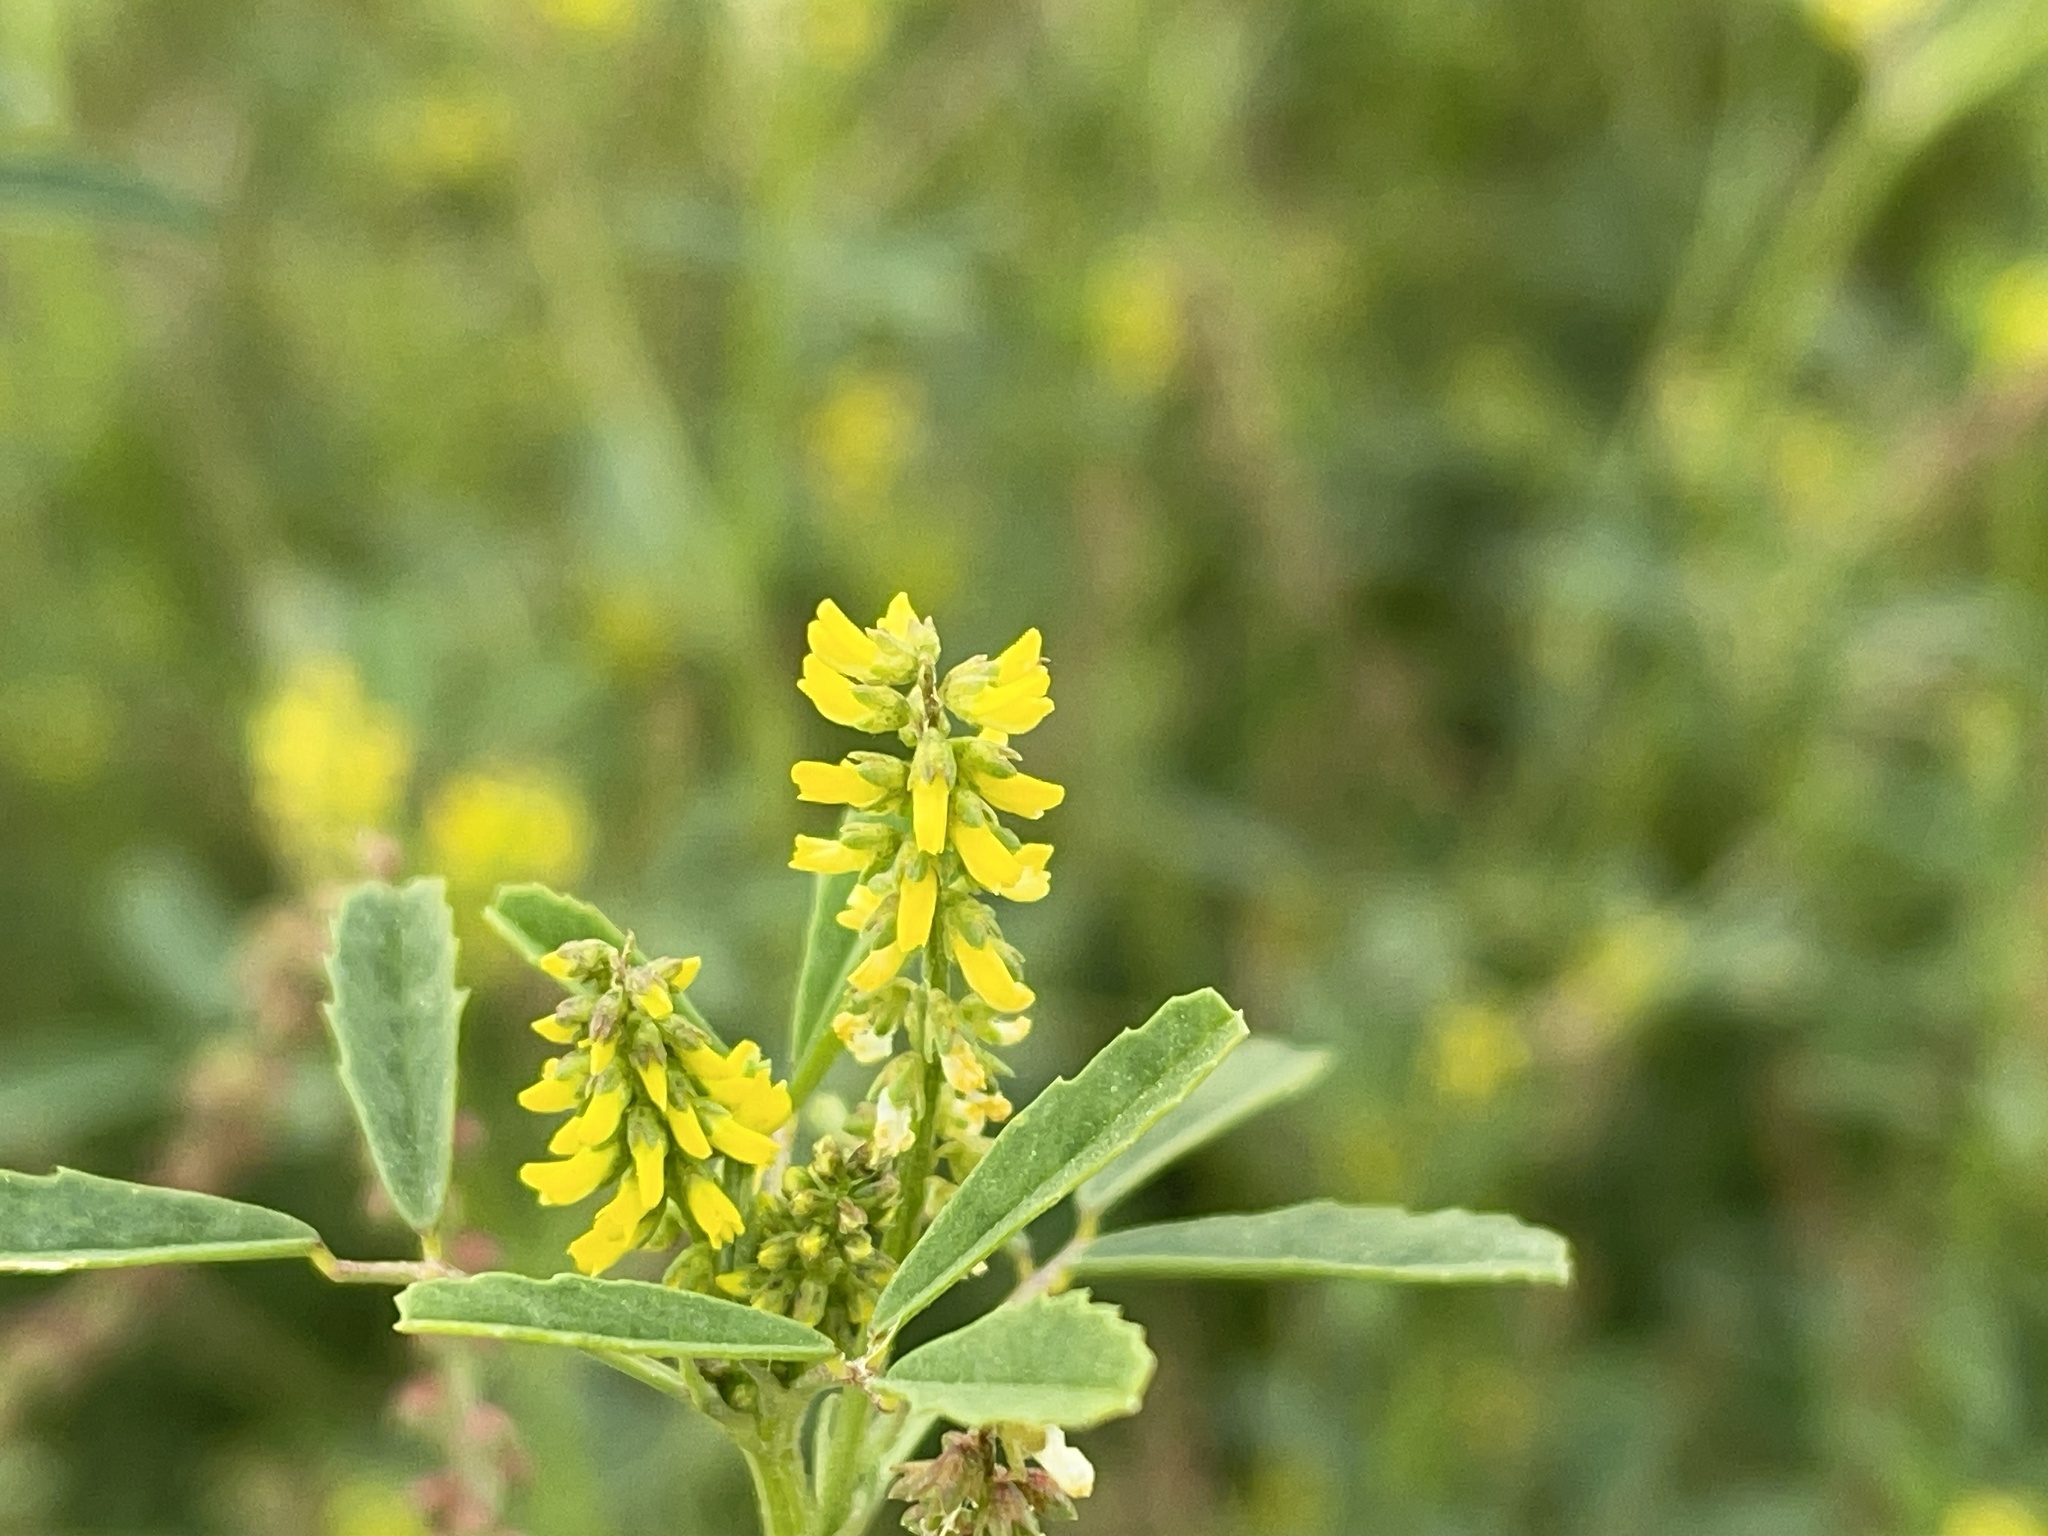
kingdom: Plantae
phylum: Tracheophyta
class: Magnoliopsida
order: Fabales
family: Fabaceae
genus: Melilotus
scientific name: Melilotus indicus
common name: Small melilot
